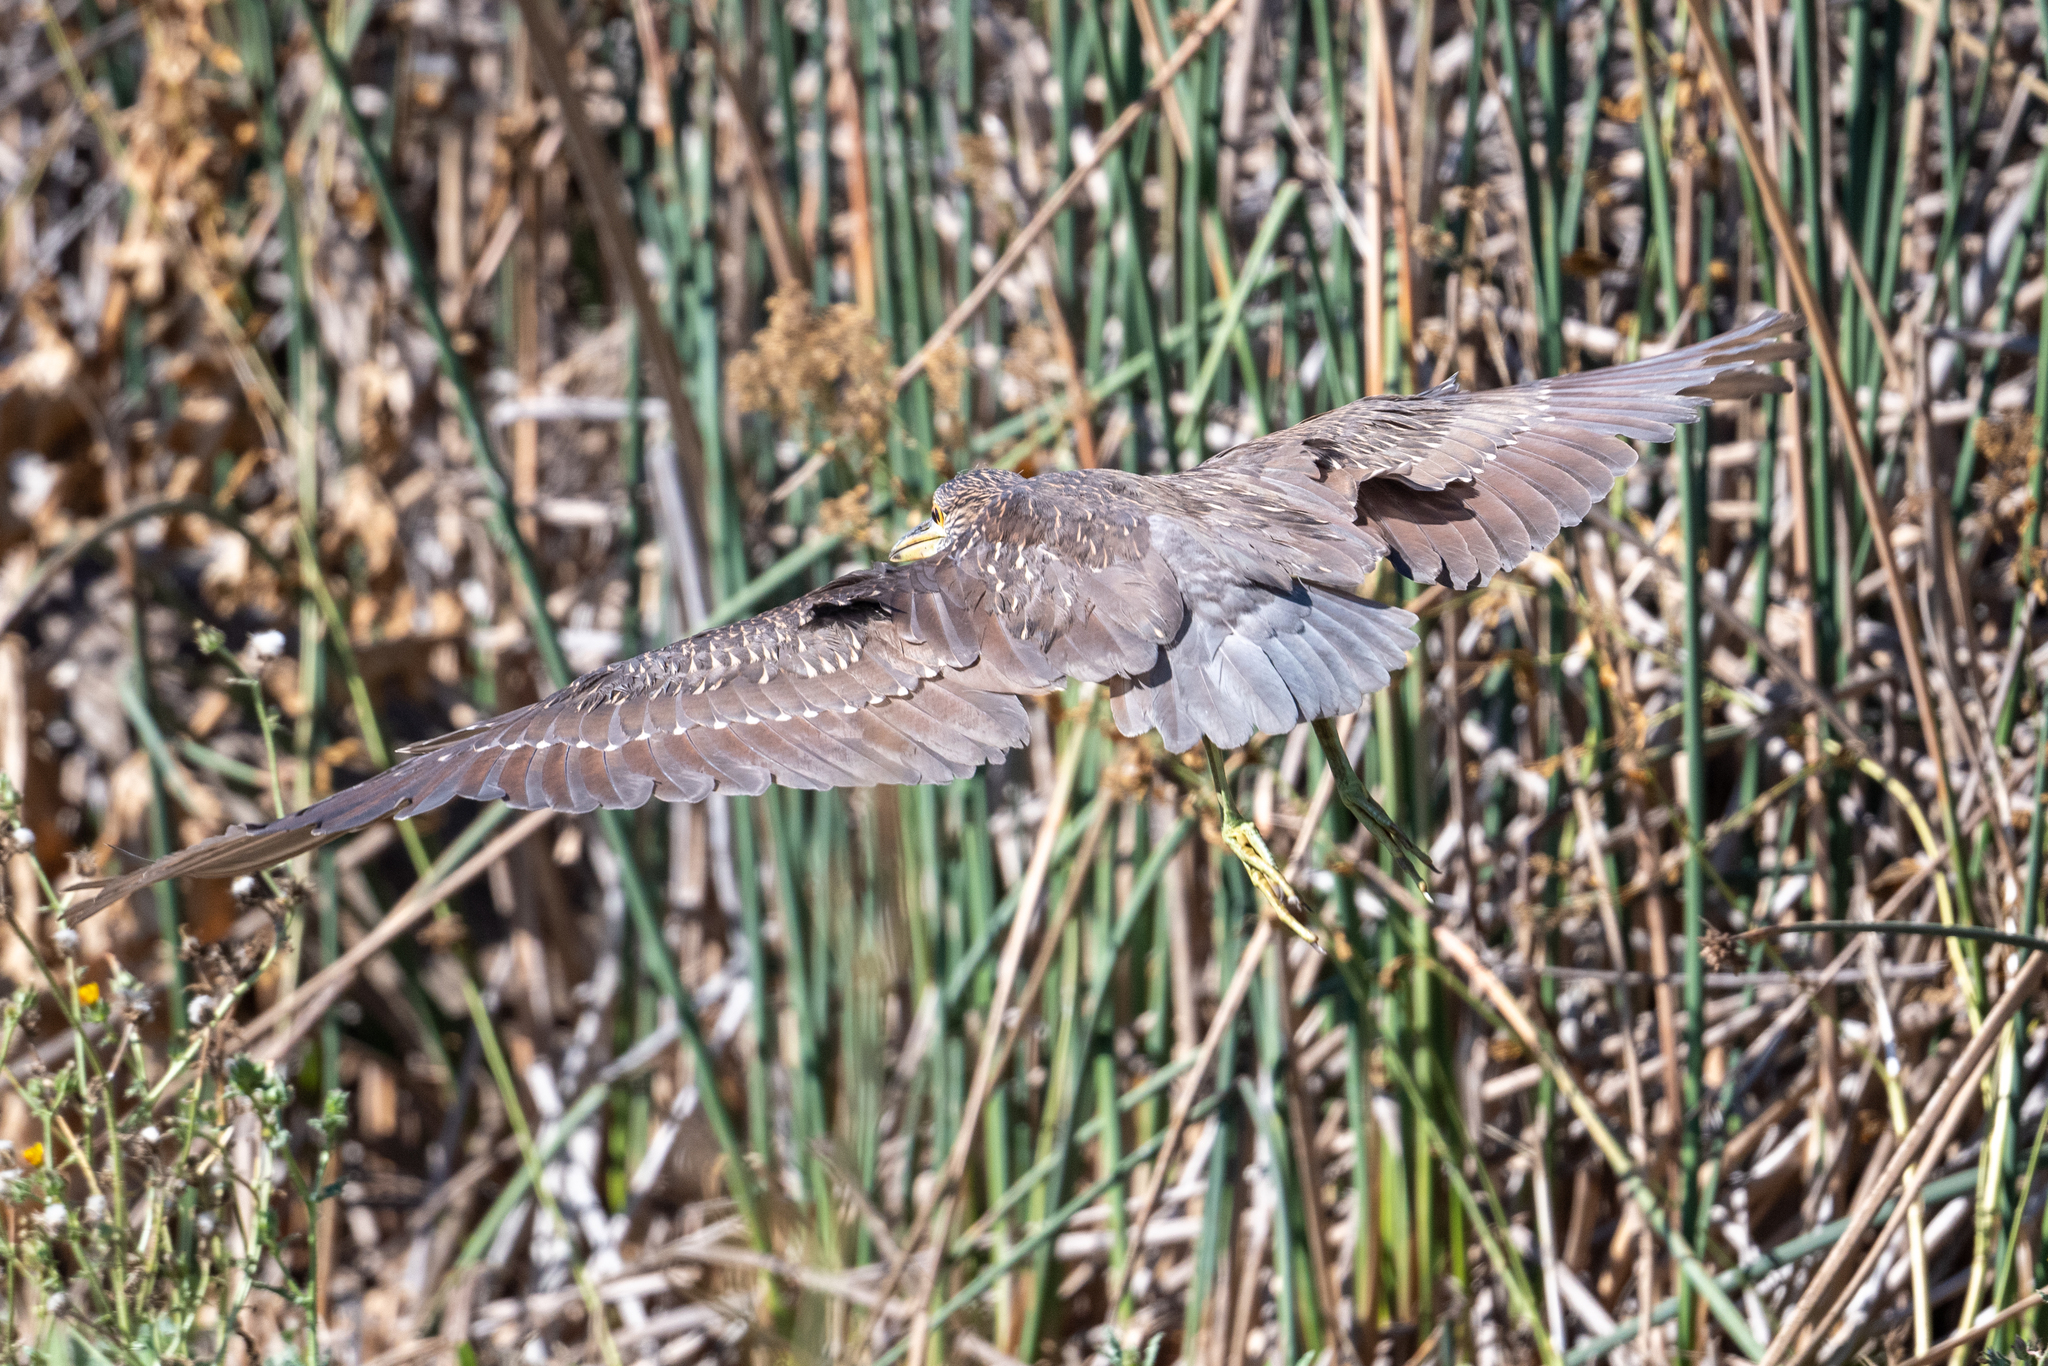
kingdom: Animalia
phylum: Chordata
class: Aves
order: Pelecaniformes
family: Ardeidae
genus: Nycticorax
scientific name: Nycticorax nycticorax
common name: Black-crowned night heron
